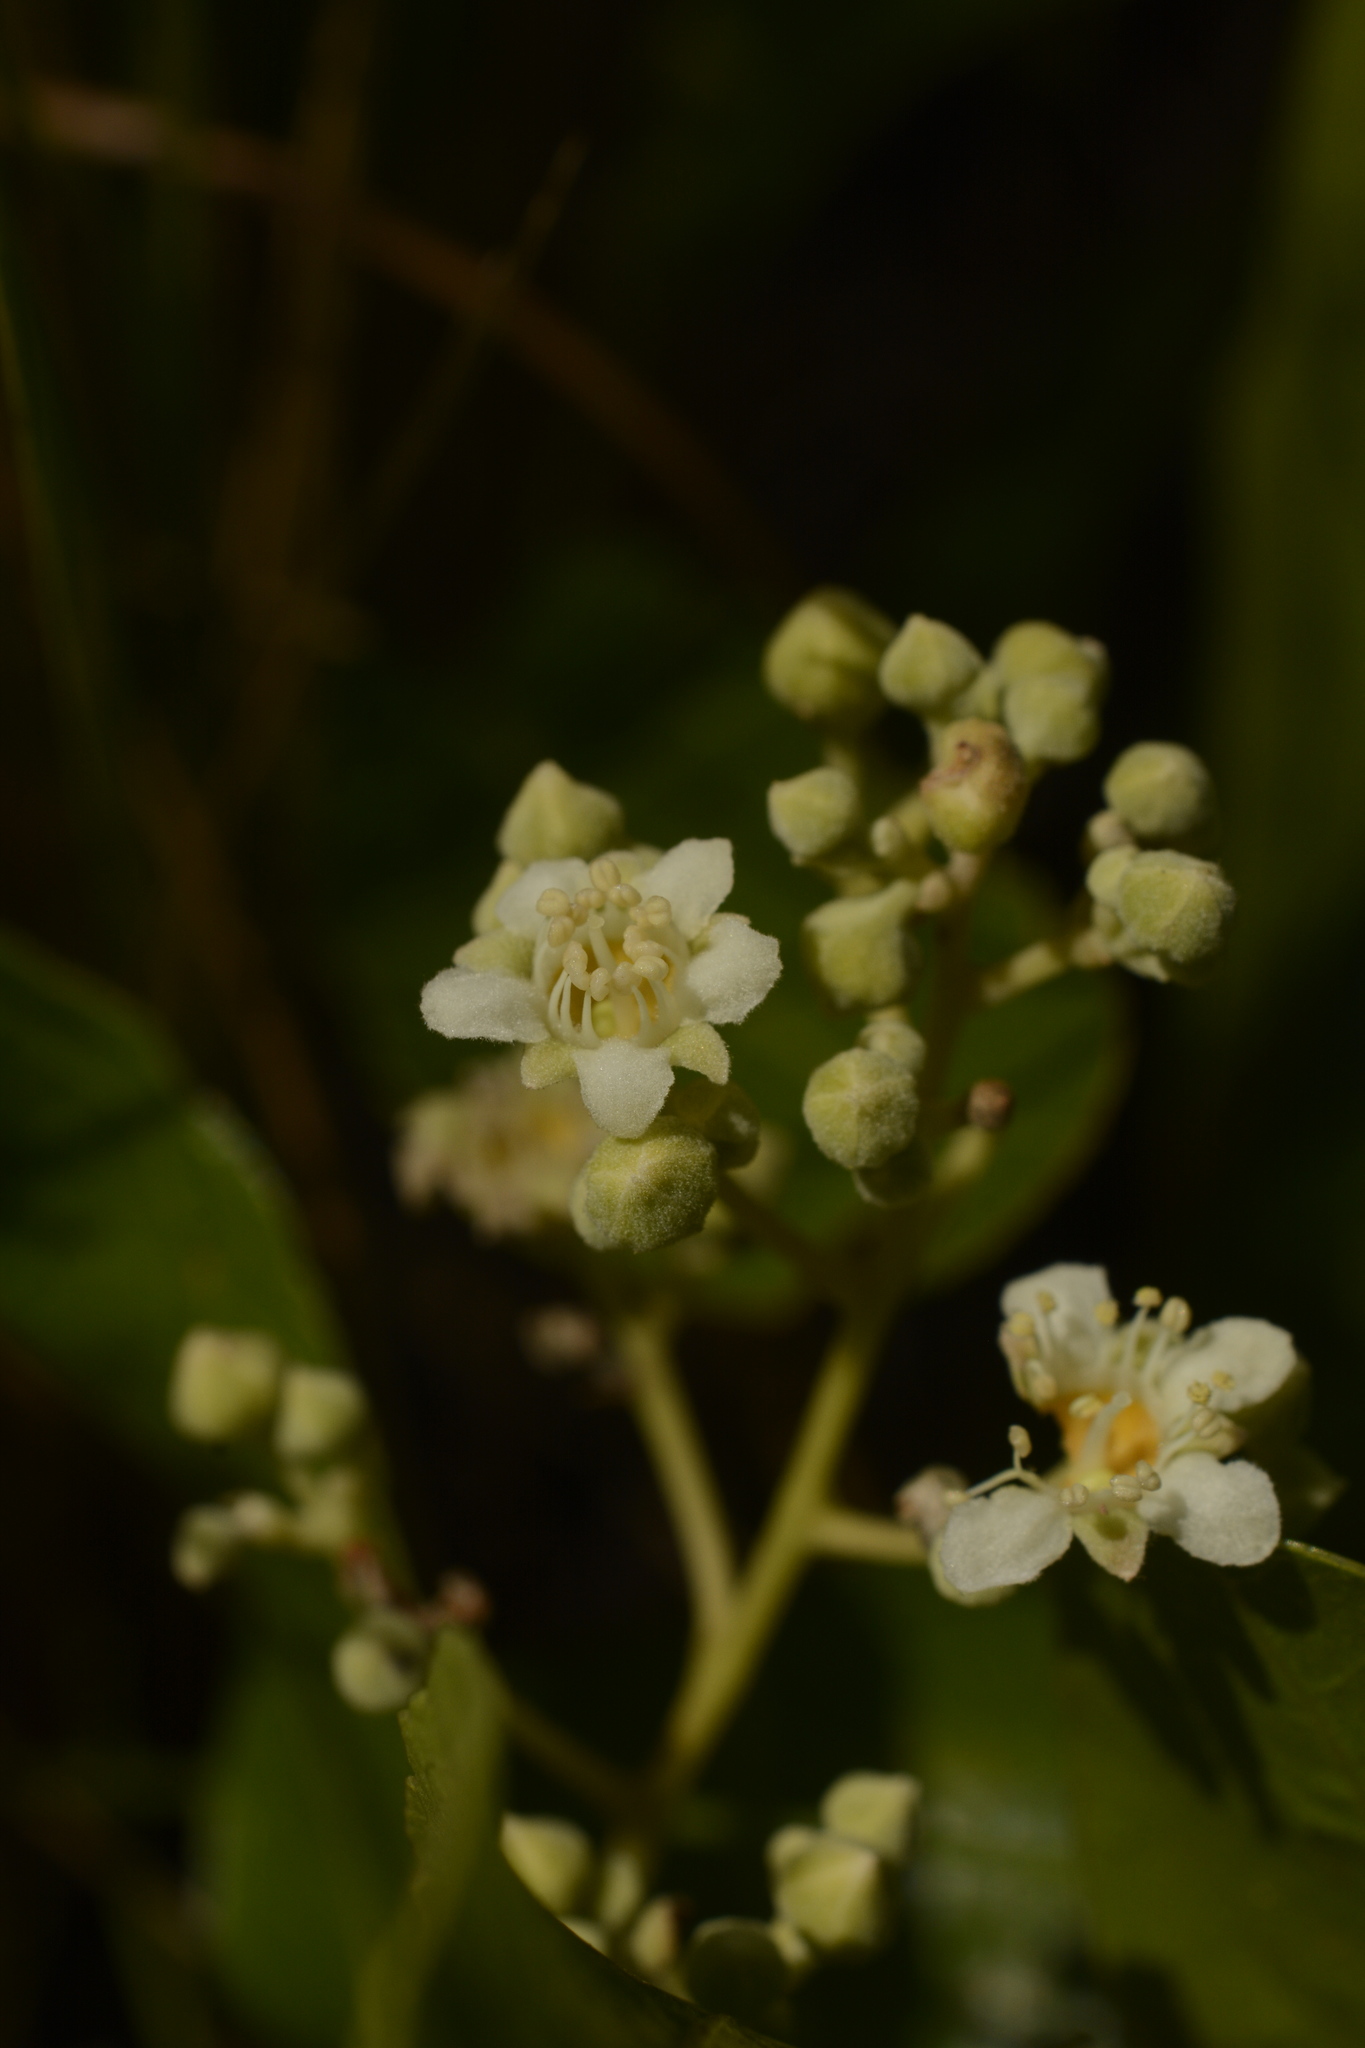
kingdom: Plantae
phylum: Tracheophyta
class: Magnoliopsida
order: Malpighiales
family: Chrysobalanaceae
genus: Geobalanus
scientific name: Geobalanus oblongifolius
